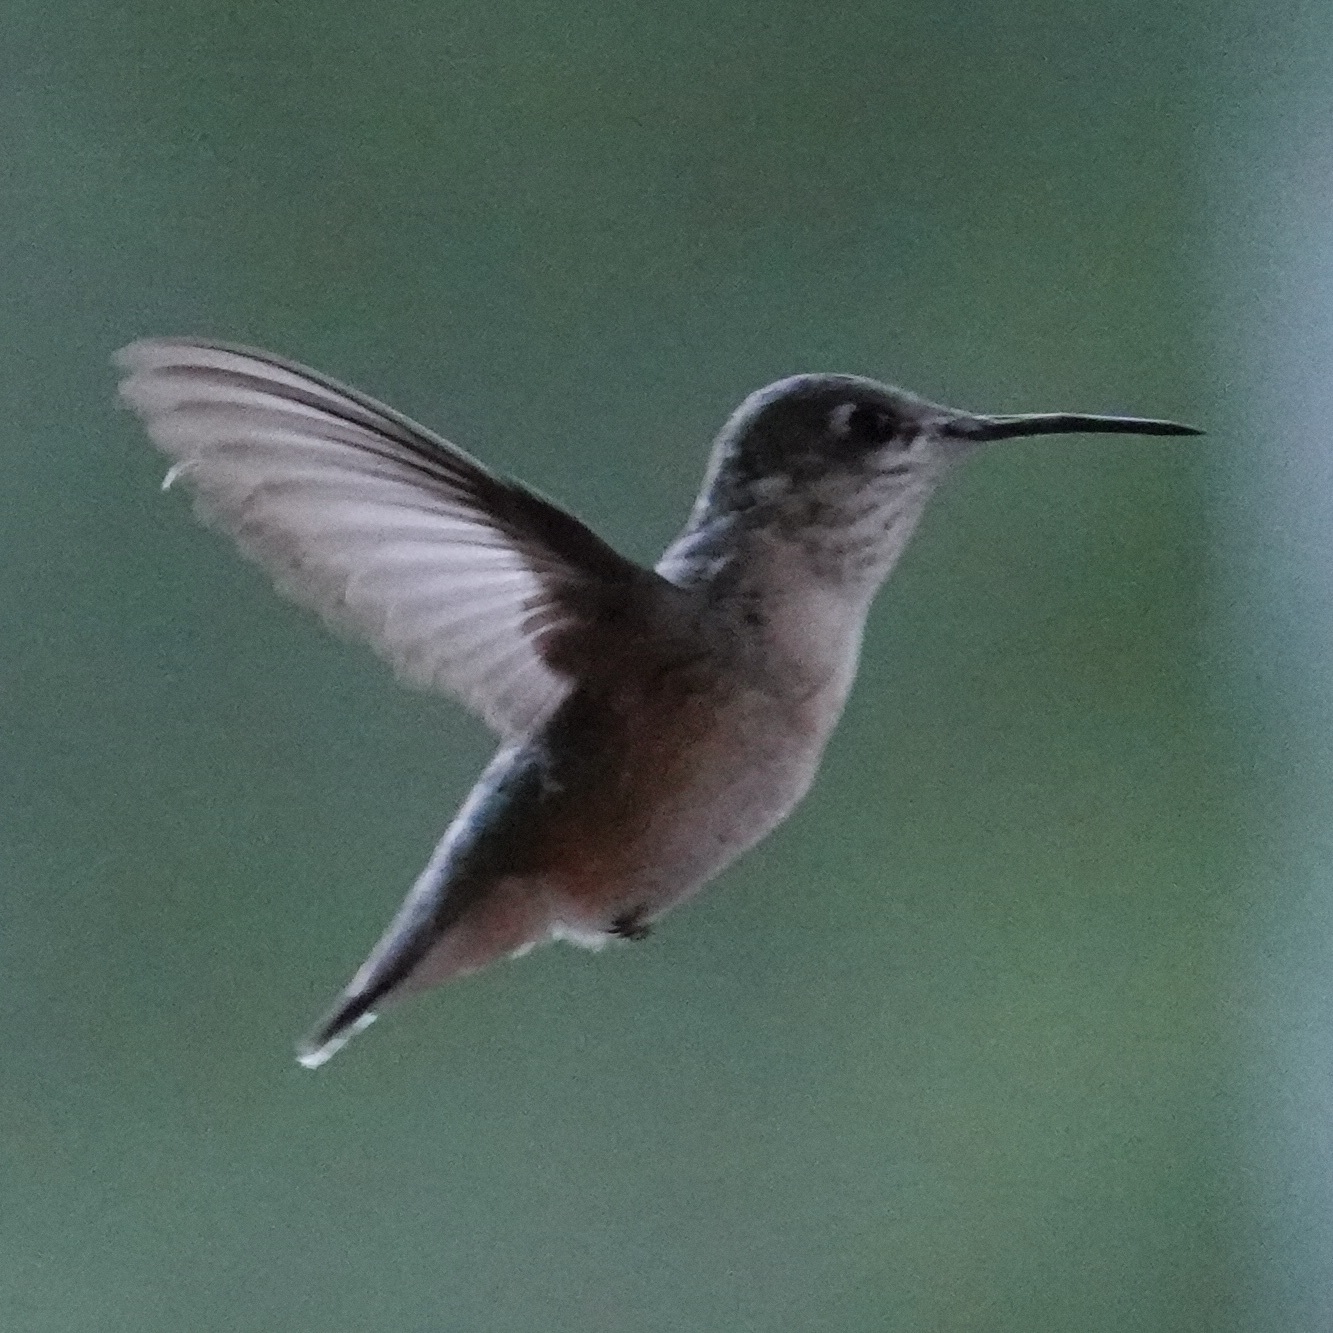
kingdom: Animalia
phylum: Chordata
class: Aves
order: Apodiformes
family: Trochilidae
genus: Selasphorus
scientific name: Selasphorus calliope
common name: Calliope hummingbird
